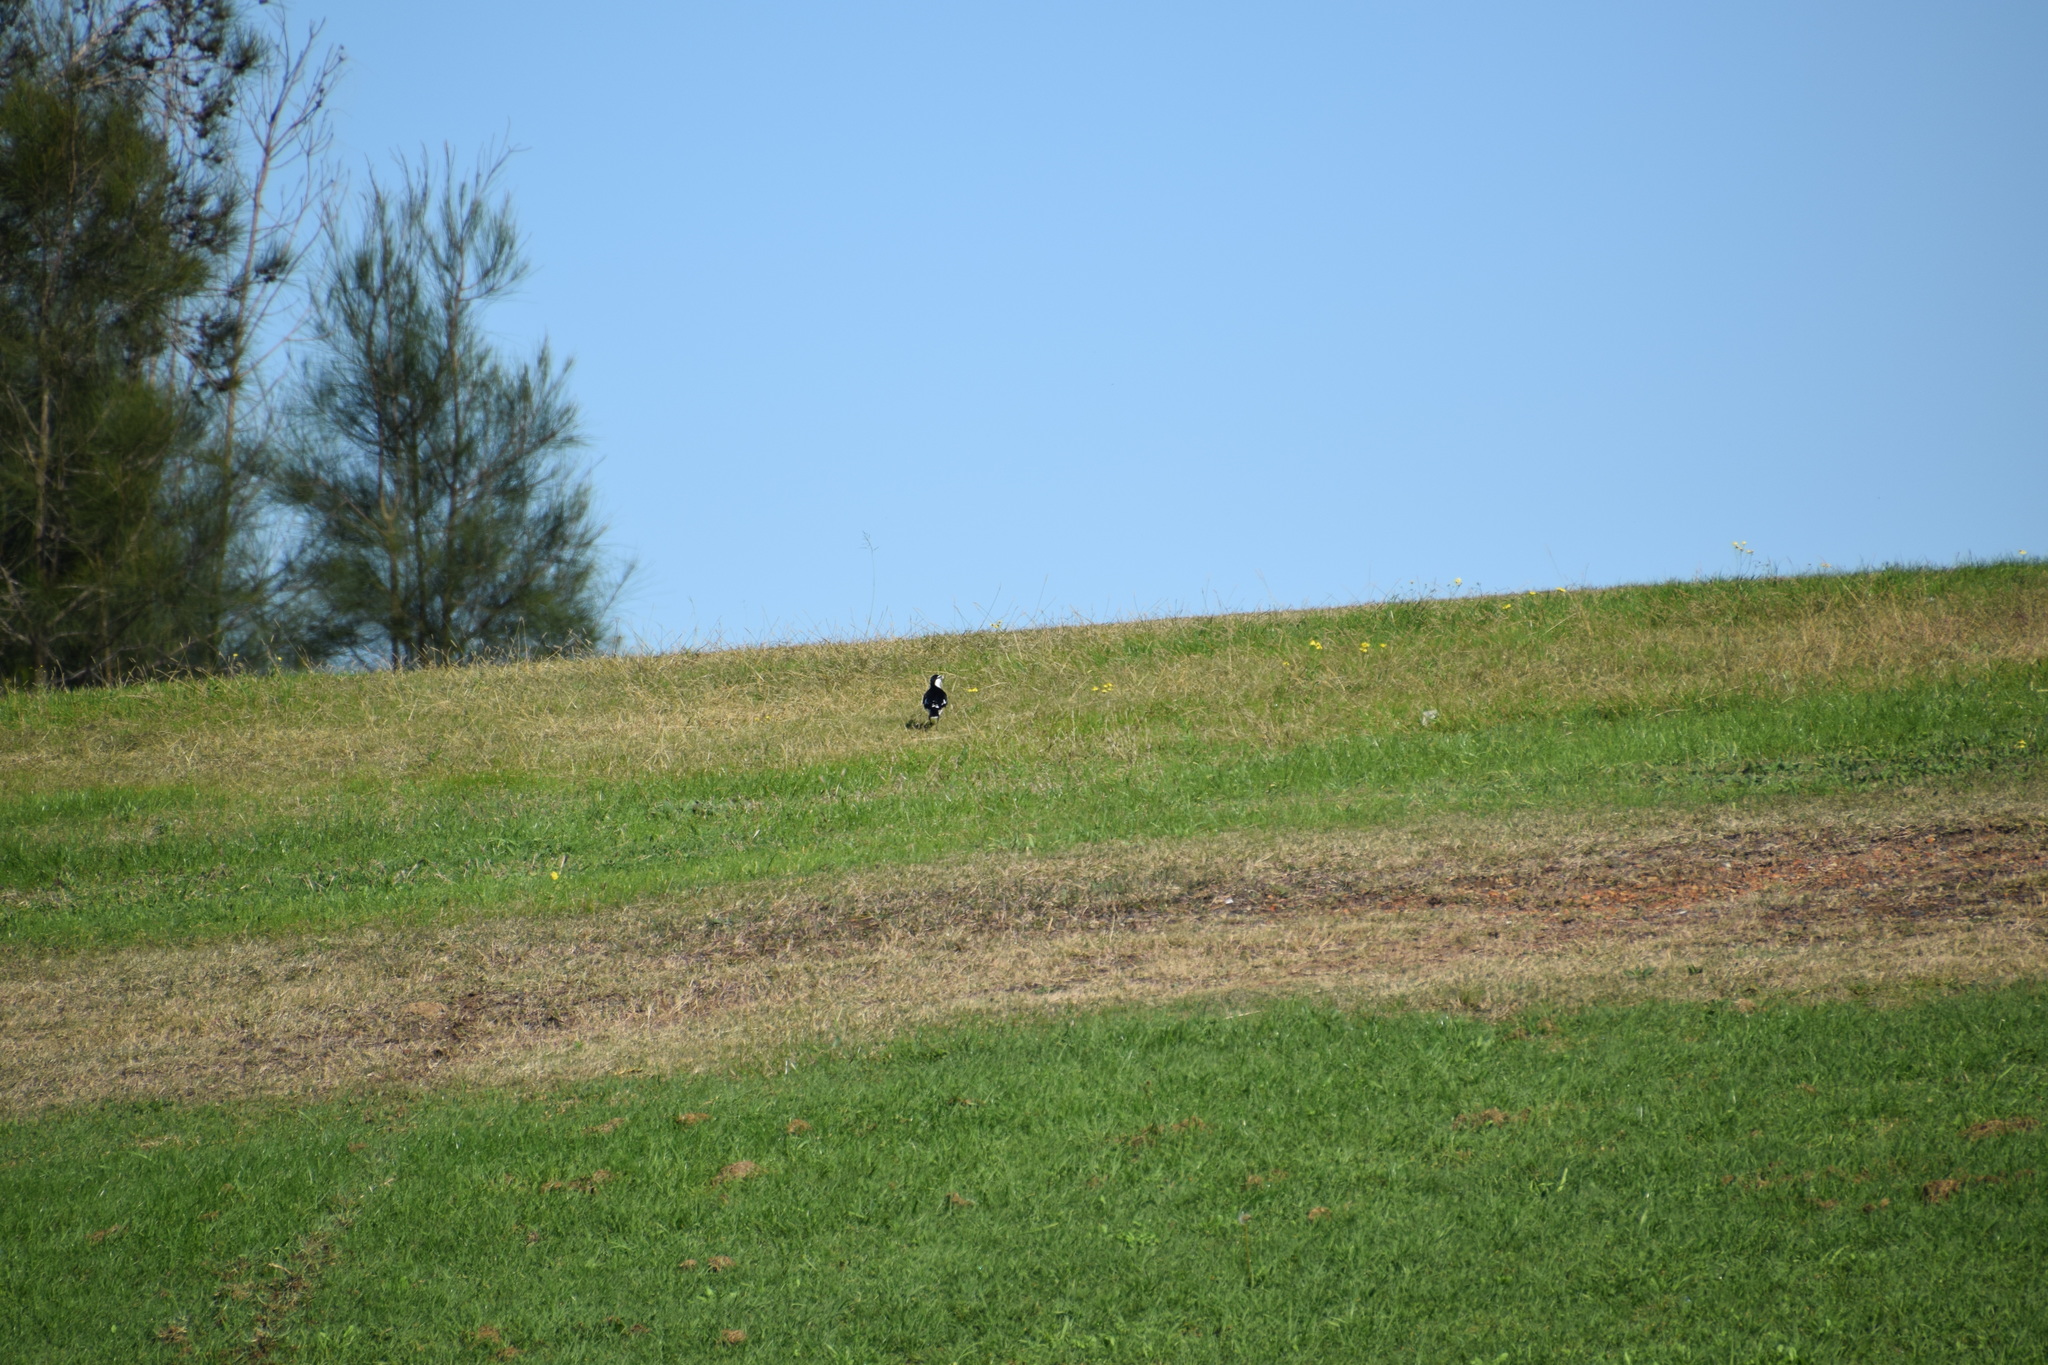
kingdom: Animalia
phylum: Chordata
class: Aves
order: Passeriformes
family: Monarchidae
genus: Grallina
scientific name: Grallina cyanoleuca
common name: Magpie-lark
